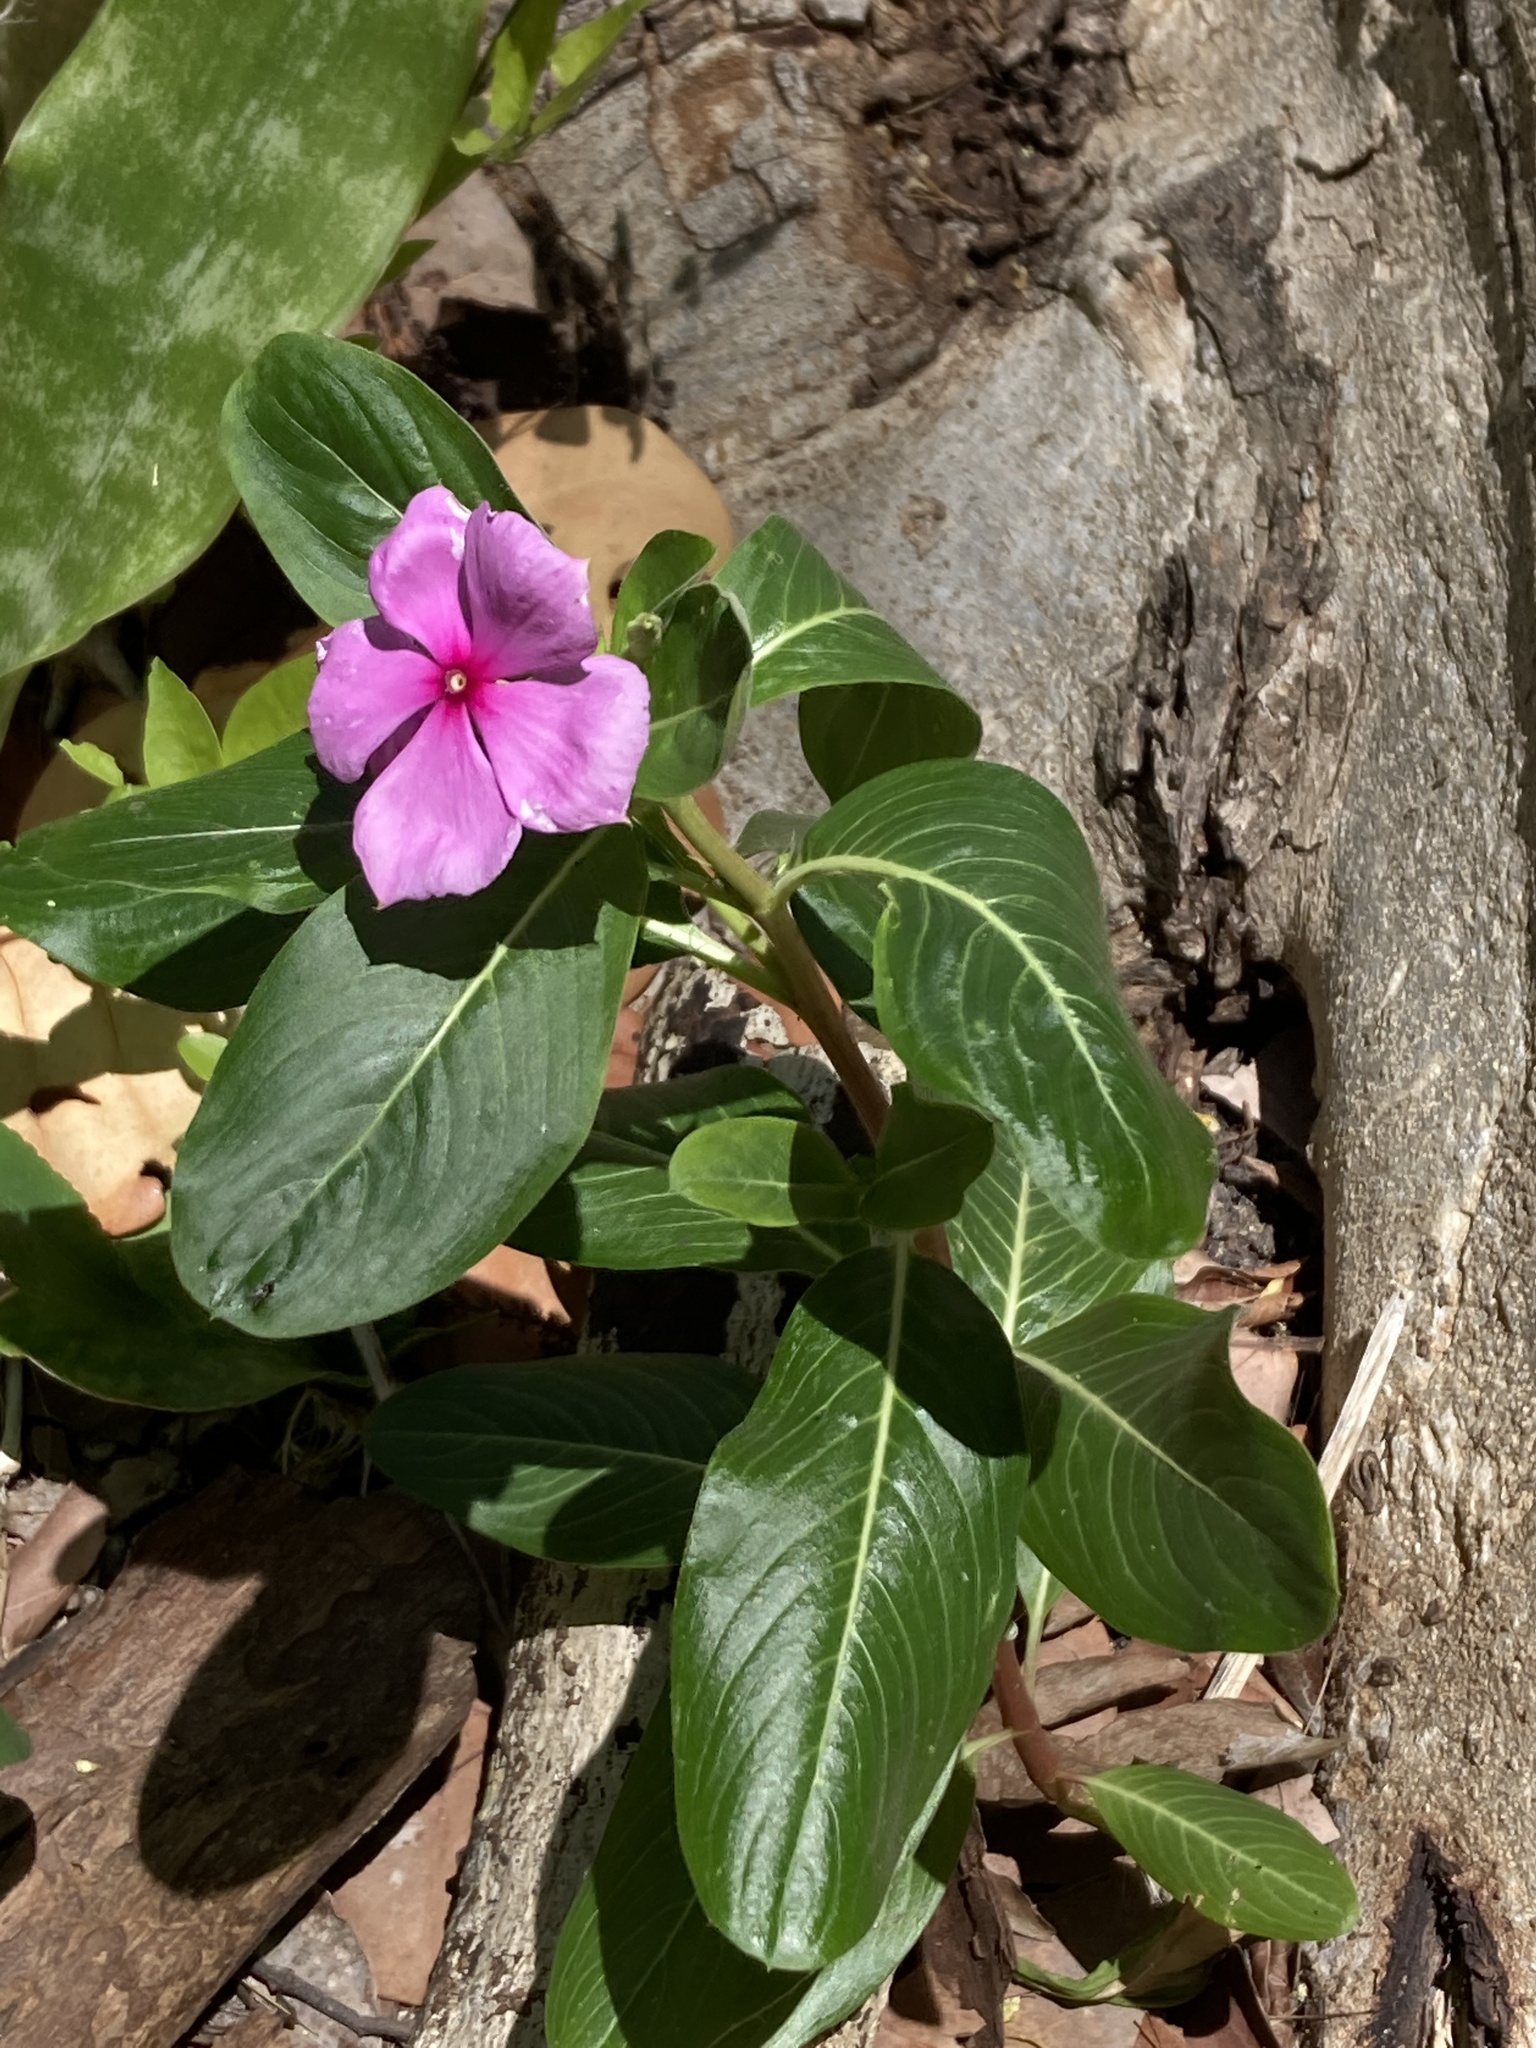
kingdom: Plantae
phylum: Tracheophyta
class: Magnoliopsida
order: Gentianales
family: Apocynaceae
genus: Catharanthus
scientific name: Catharanthus roseus
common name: Madagascar periwinkle
